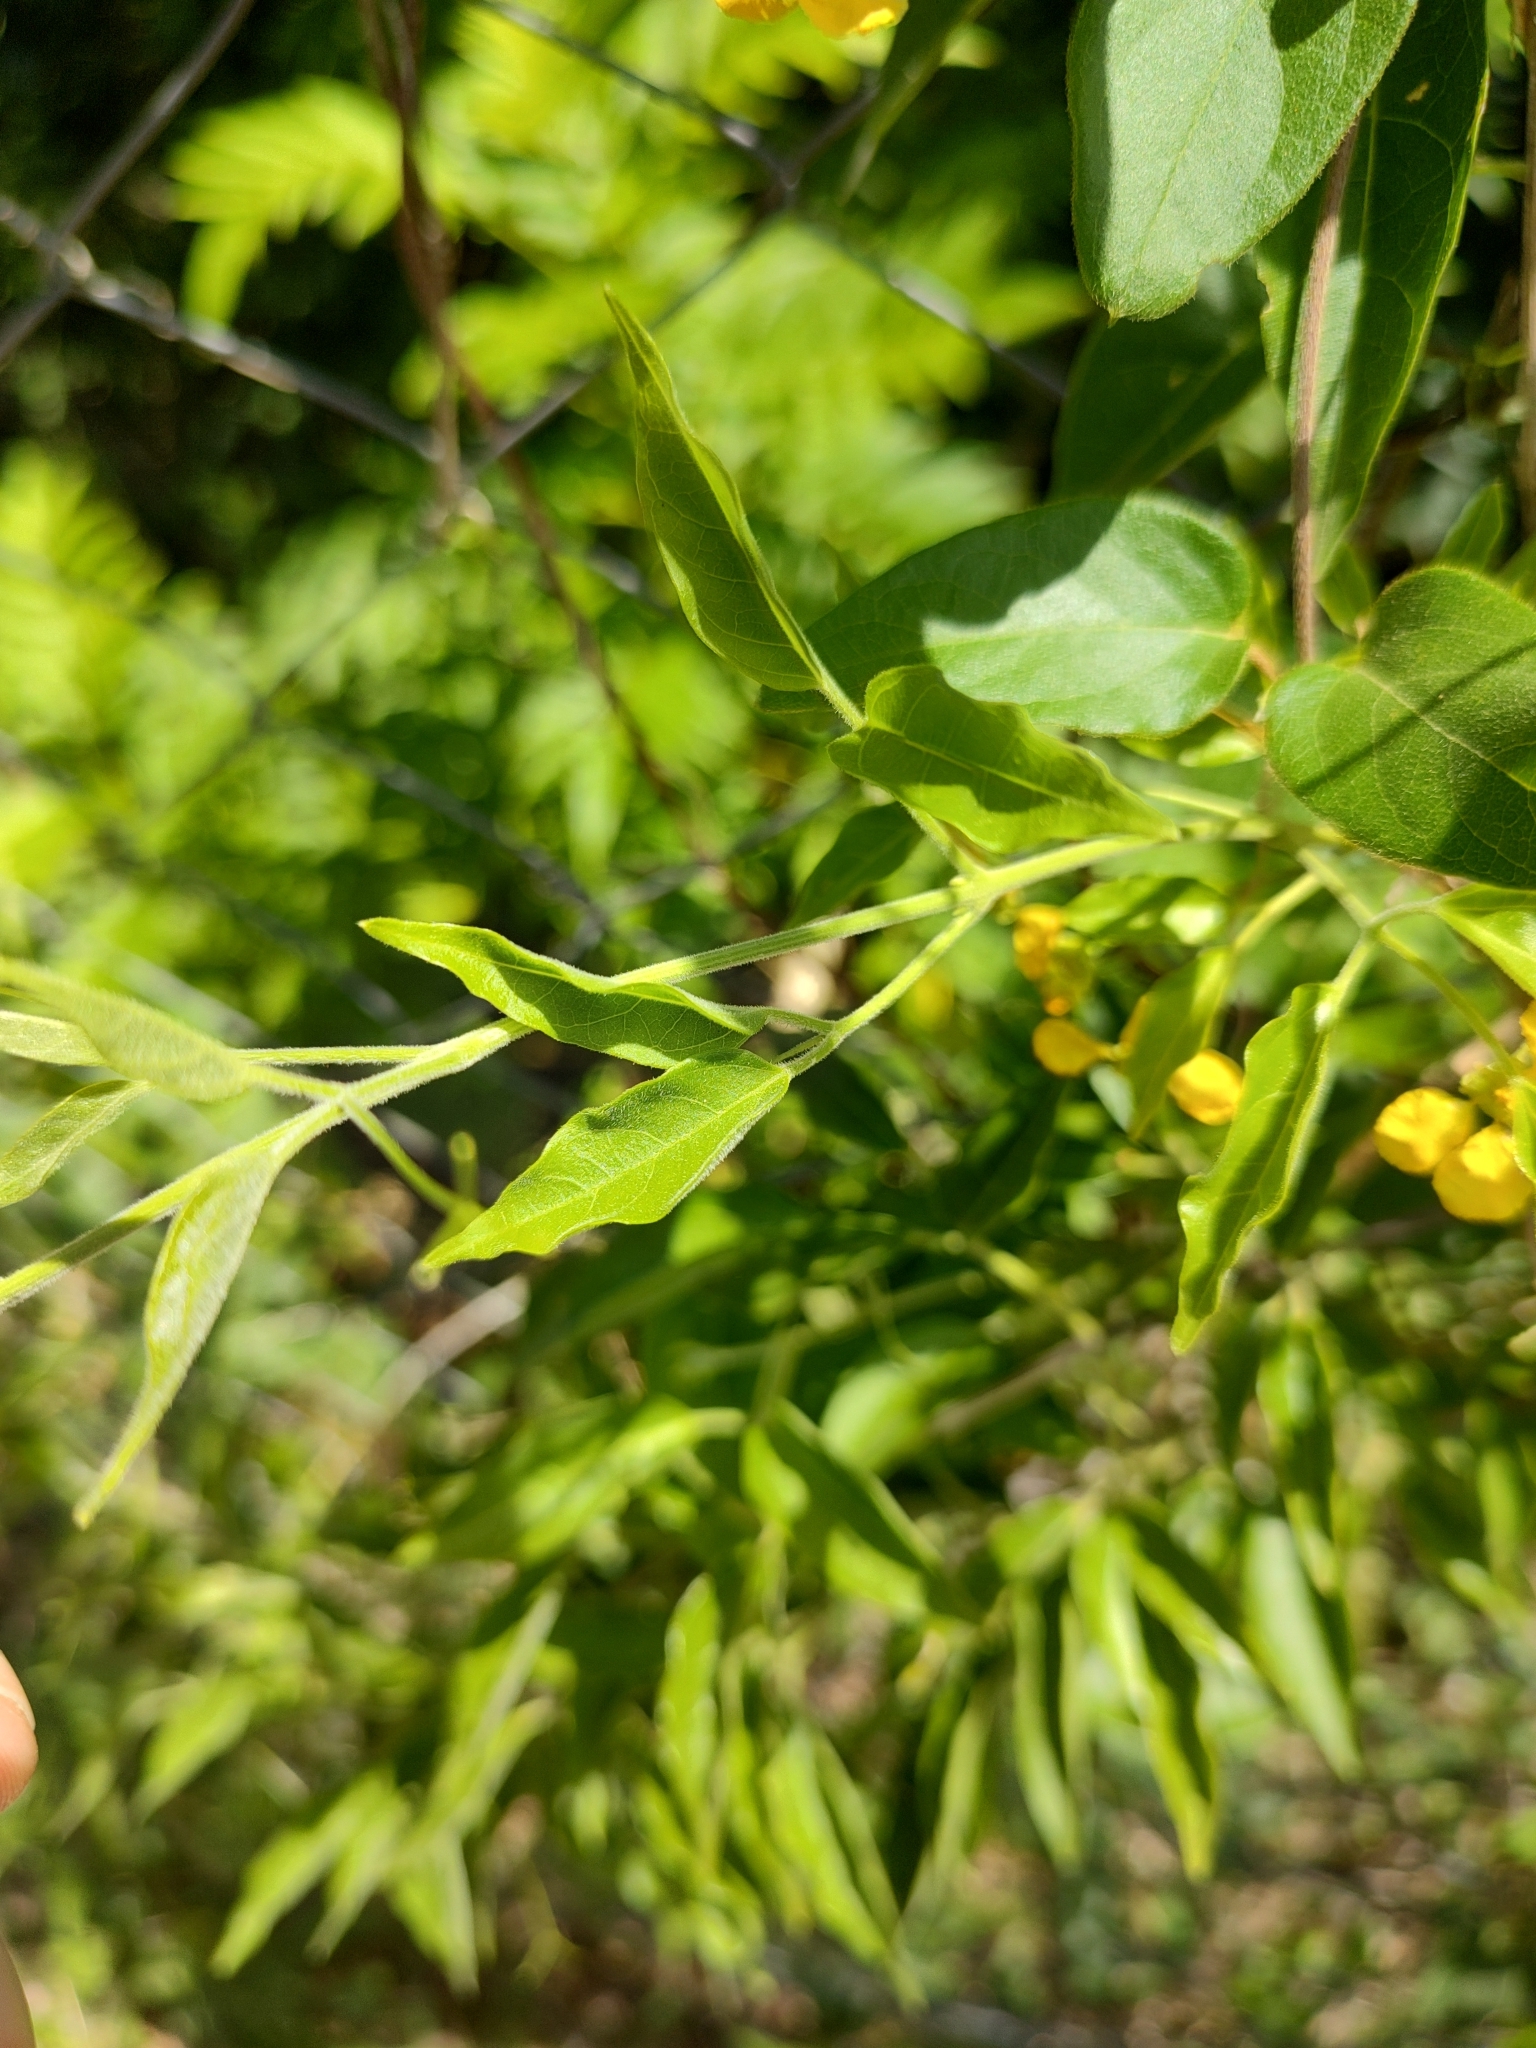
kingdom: Plantae
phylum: Tracheophyta
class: Magnoliopsida
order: Malpighiales
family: Malpighiaceae
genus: Janusia
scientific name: Janusia guaranitica
